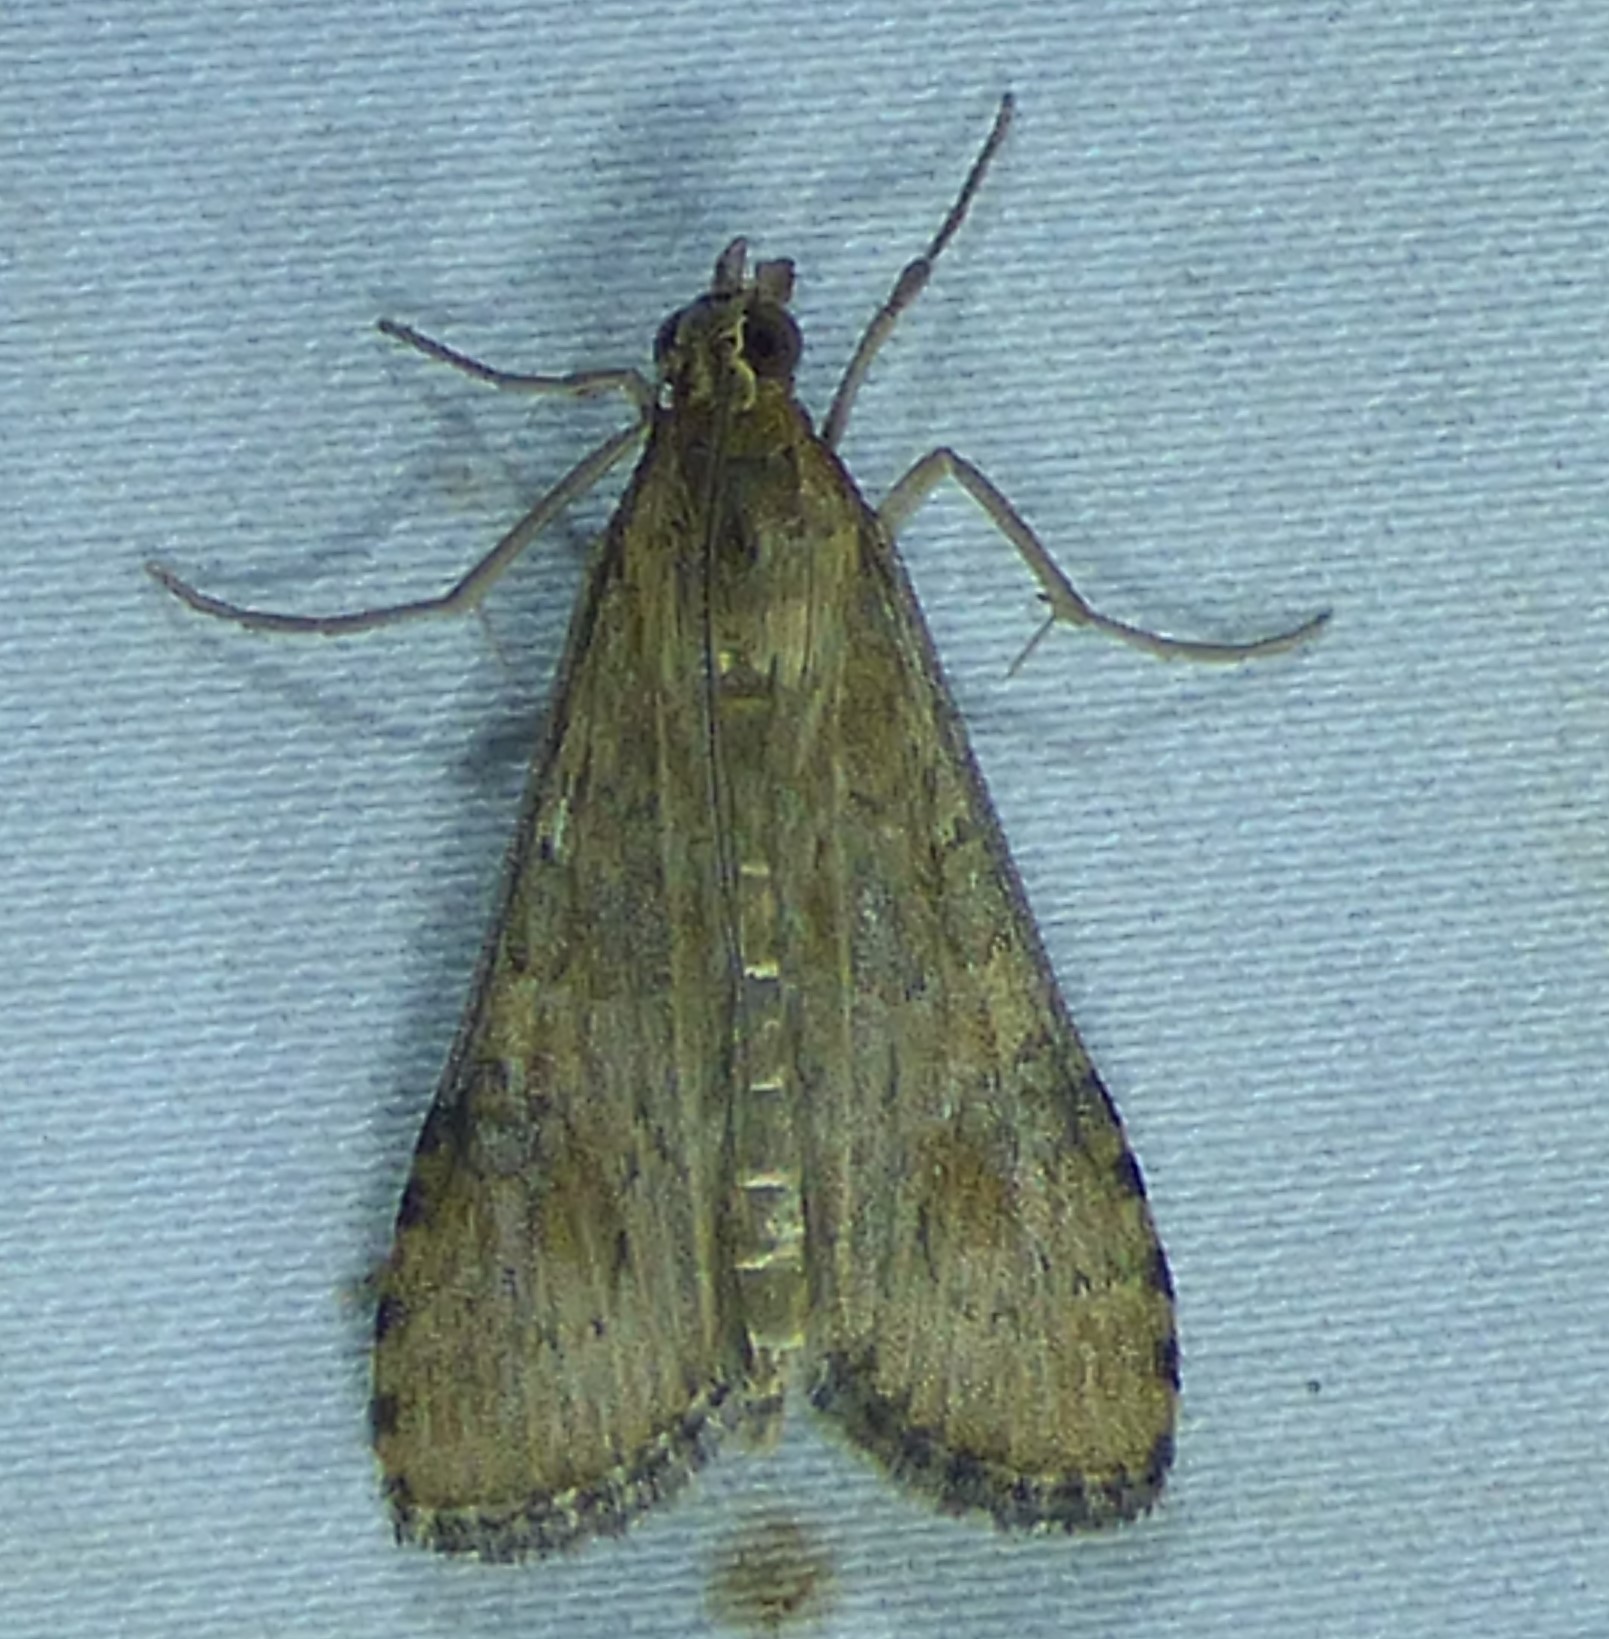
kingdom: Animalia
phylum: Arthropoda
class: Insecta
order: Lepidoptera
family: Crambidae
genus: Nomophila
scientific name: Nomophila nearctica
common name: American rush veneer
